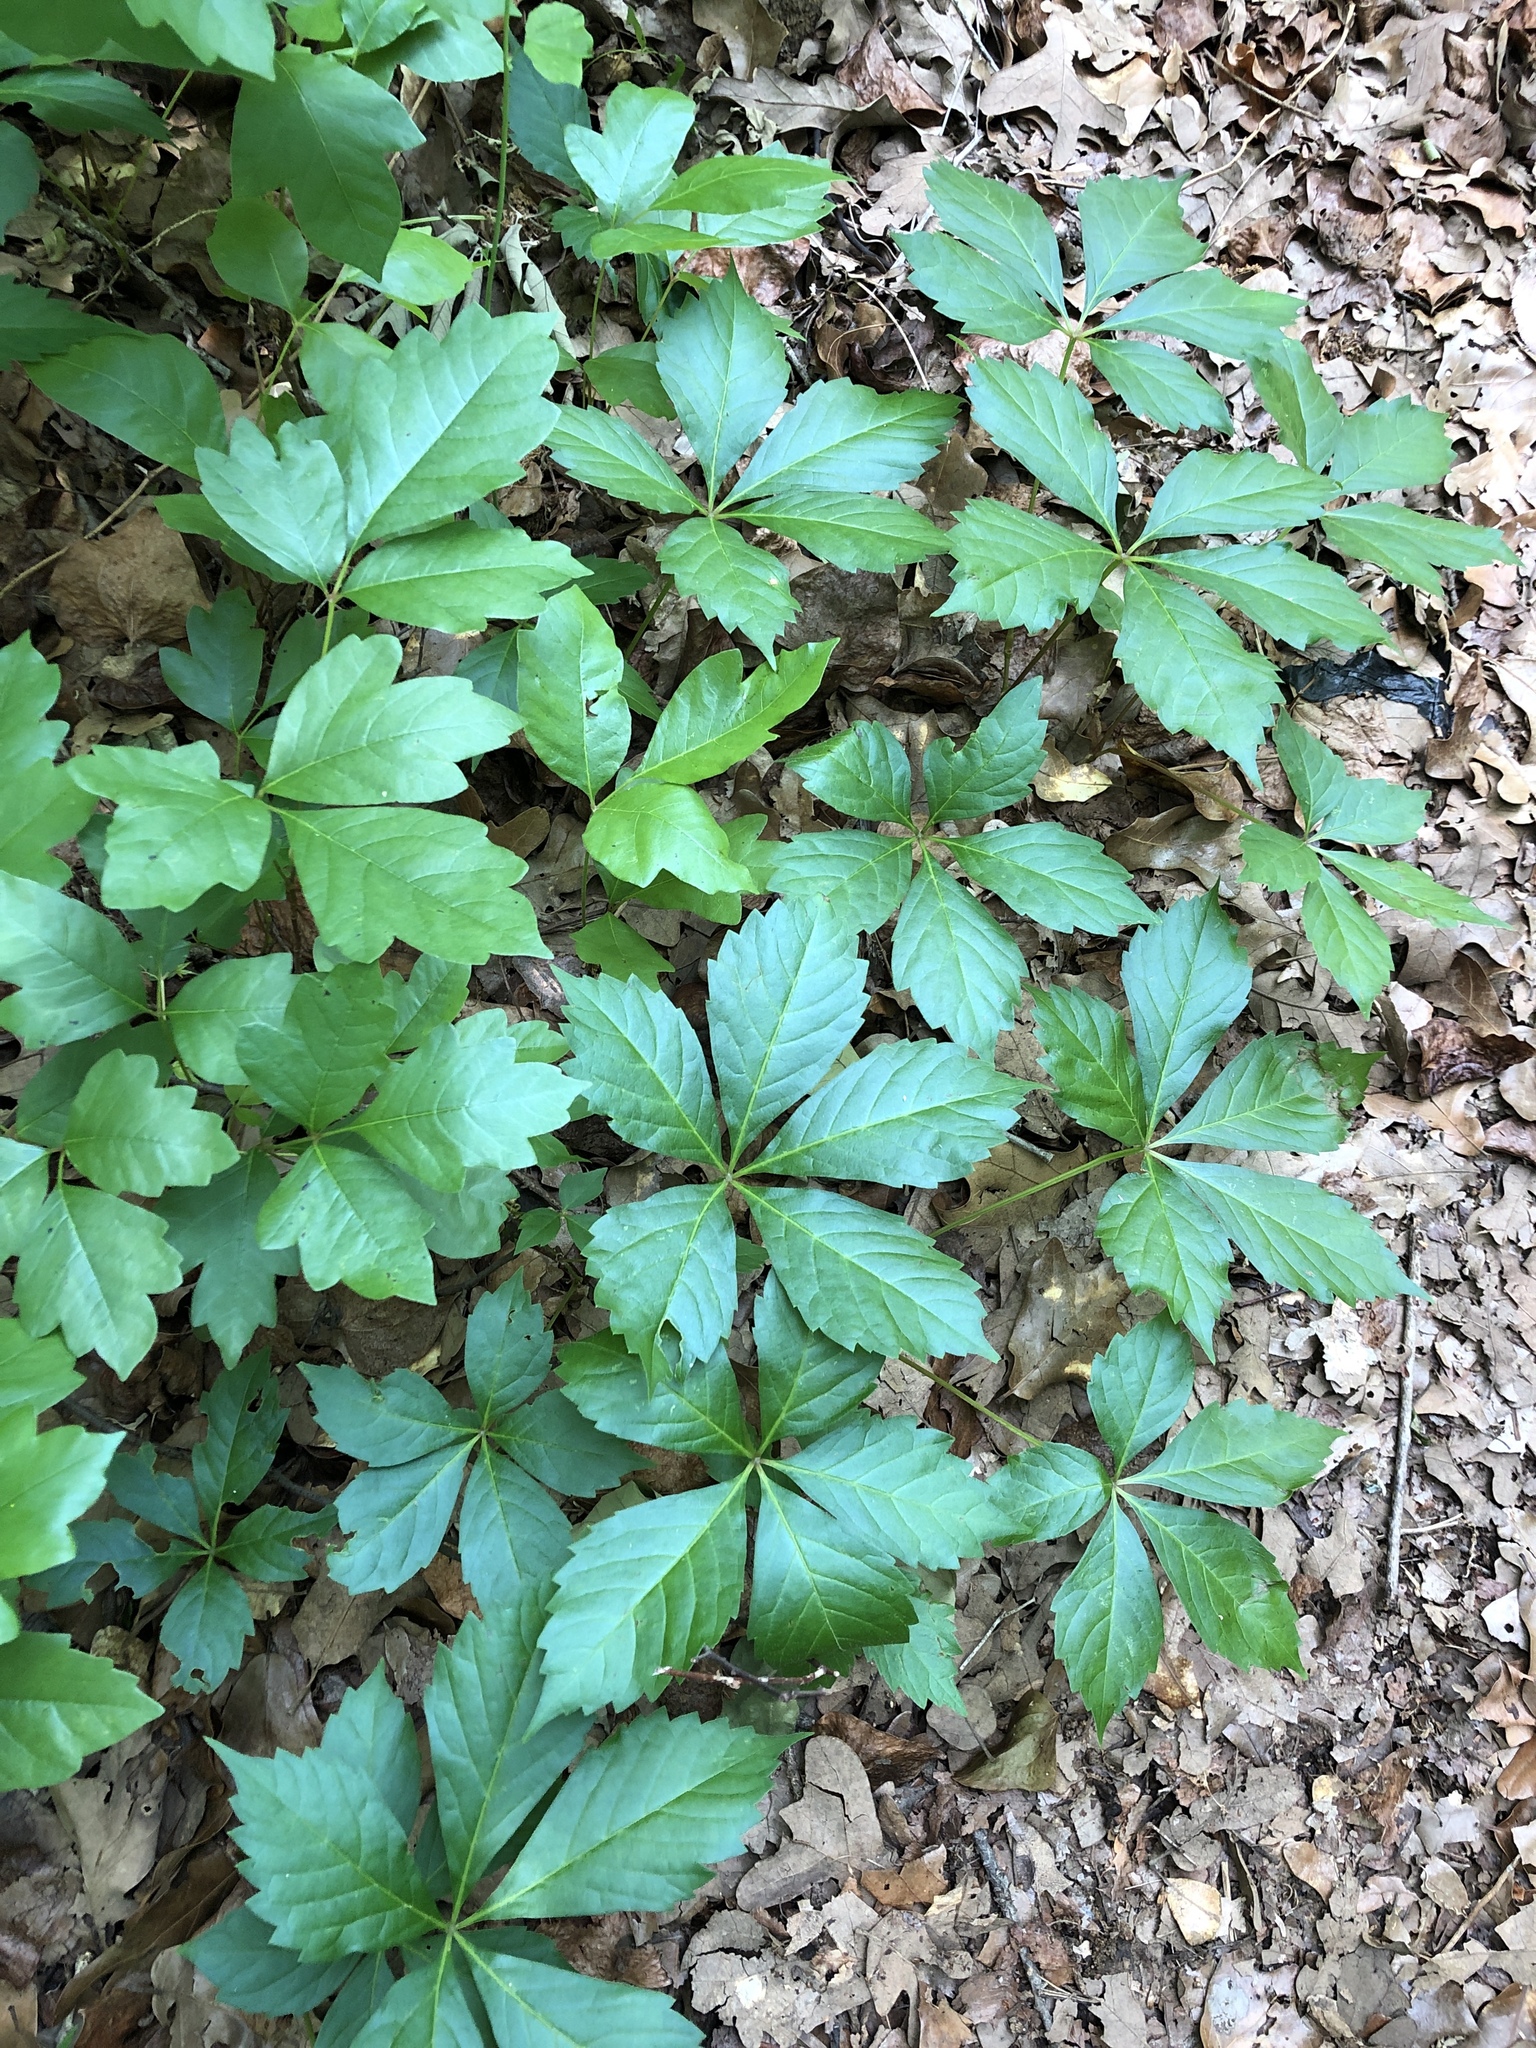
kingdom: Plantae
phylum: Tracheophyta
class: Magnoliopsida
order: Vitales
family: Vitaceae
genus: Parthenocissus
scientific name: Parthenocissus quinquefolia
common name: Virginia-creeper
